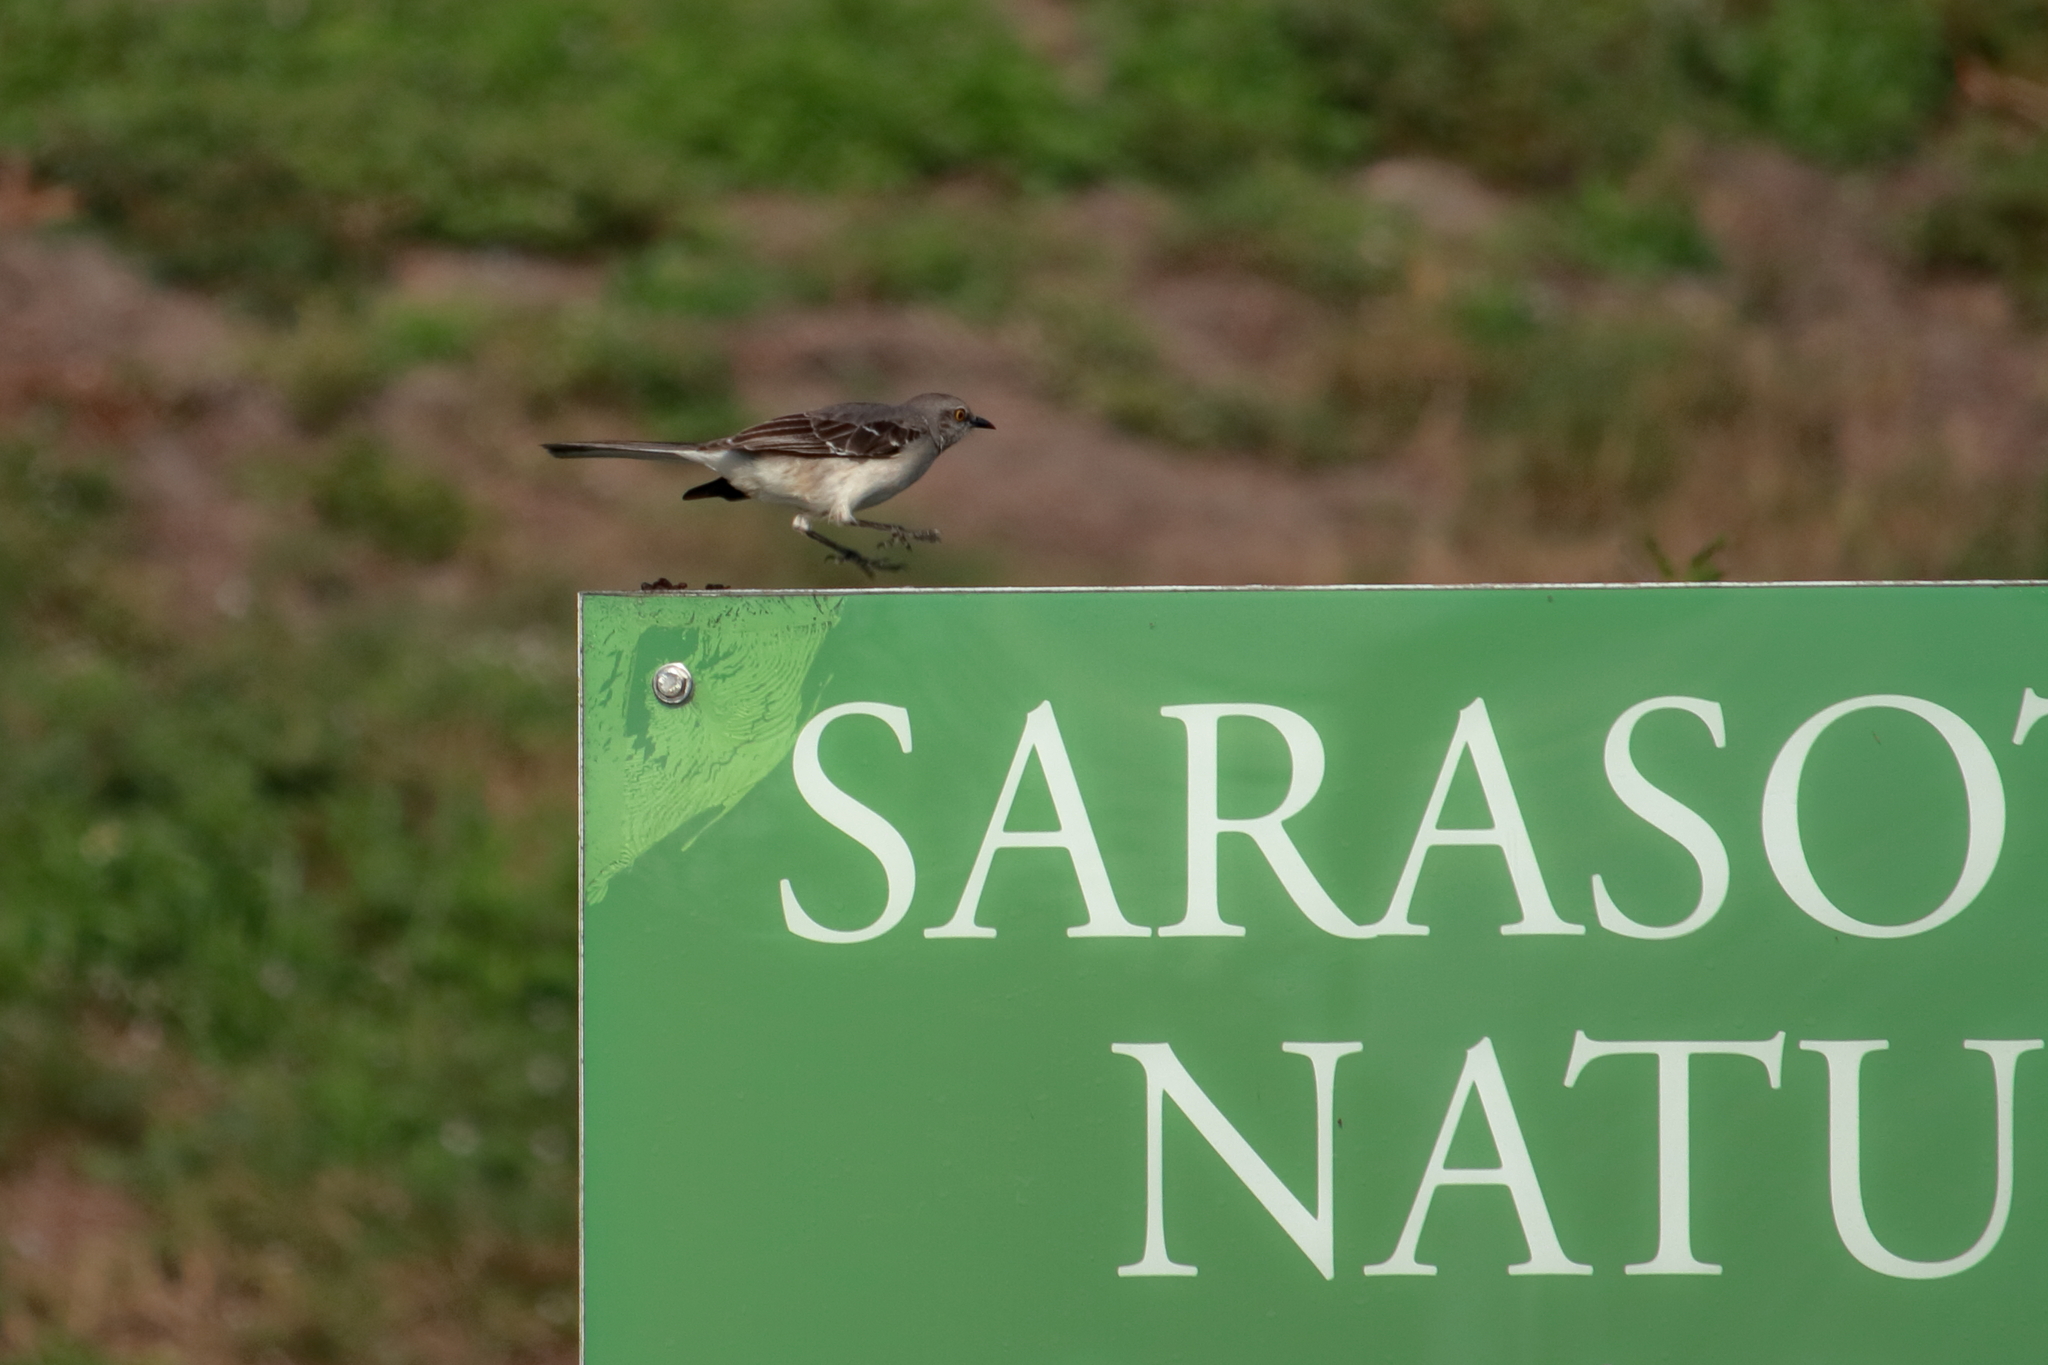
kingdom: Animalia
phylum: Chordata
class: Aves
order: Passeriformes
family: Mimidae
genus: Mimus
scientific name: Mimus polyglottos
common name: Northern mockingbird
